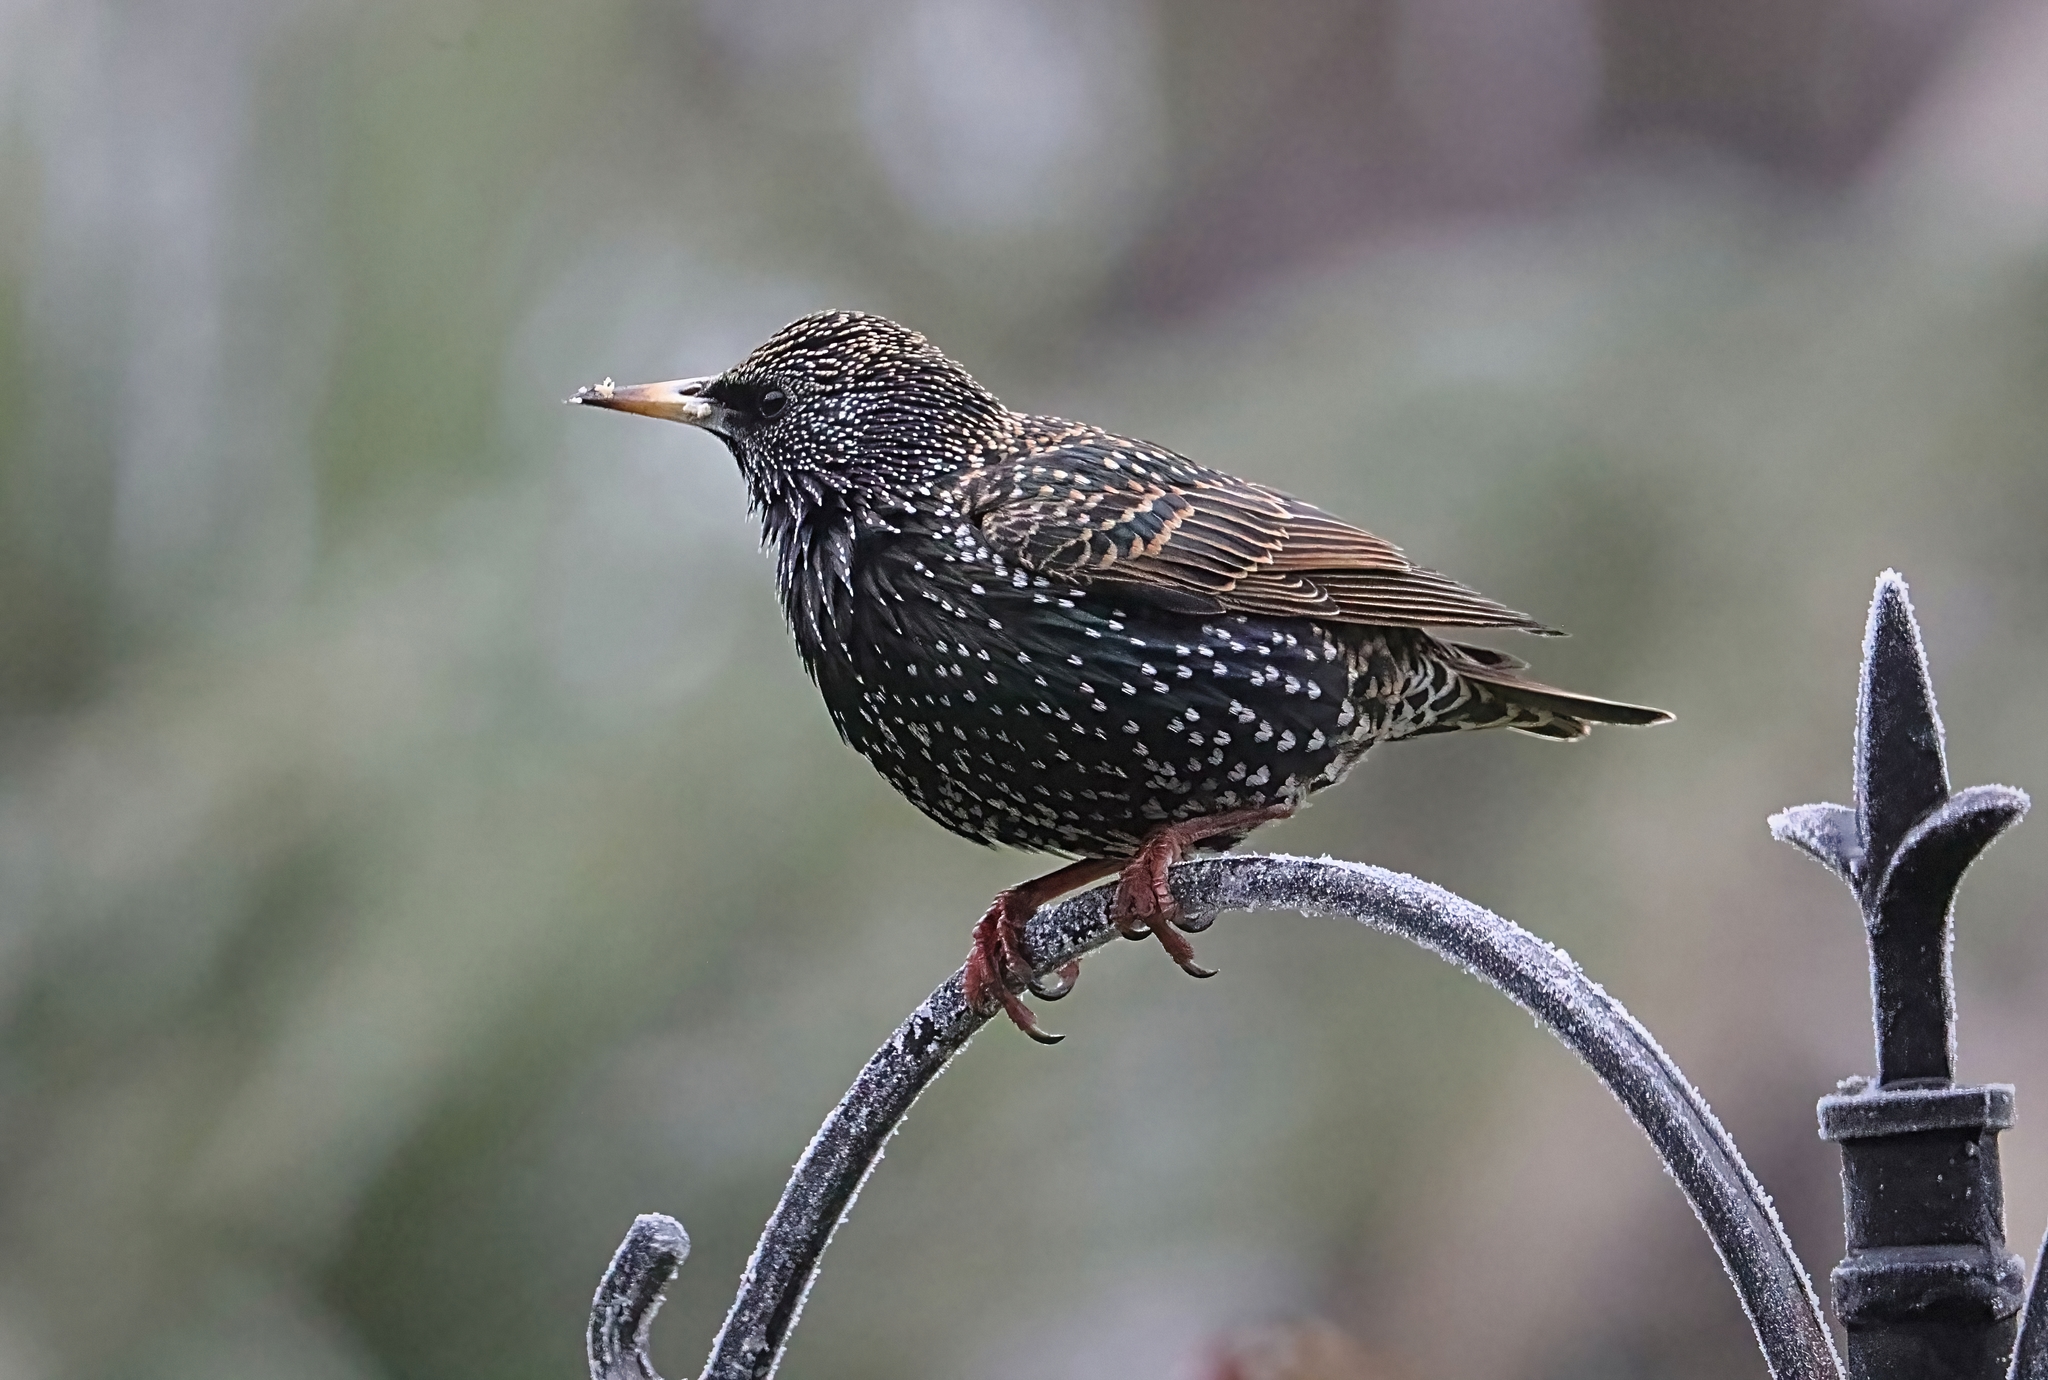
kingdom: Animalia
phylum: Chordata
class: Aves
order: Passeriformes
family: Sturnidae
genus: Sturnus
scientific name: Sturnus vulgaris
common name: Common starling
